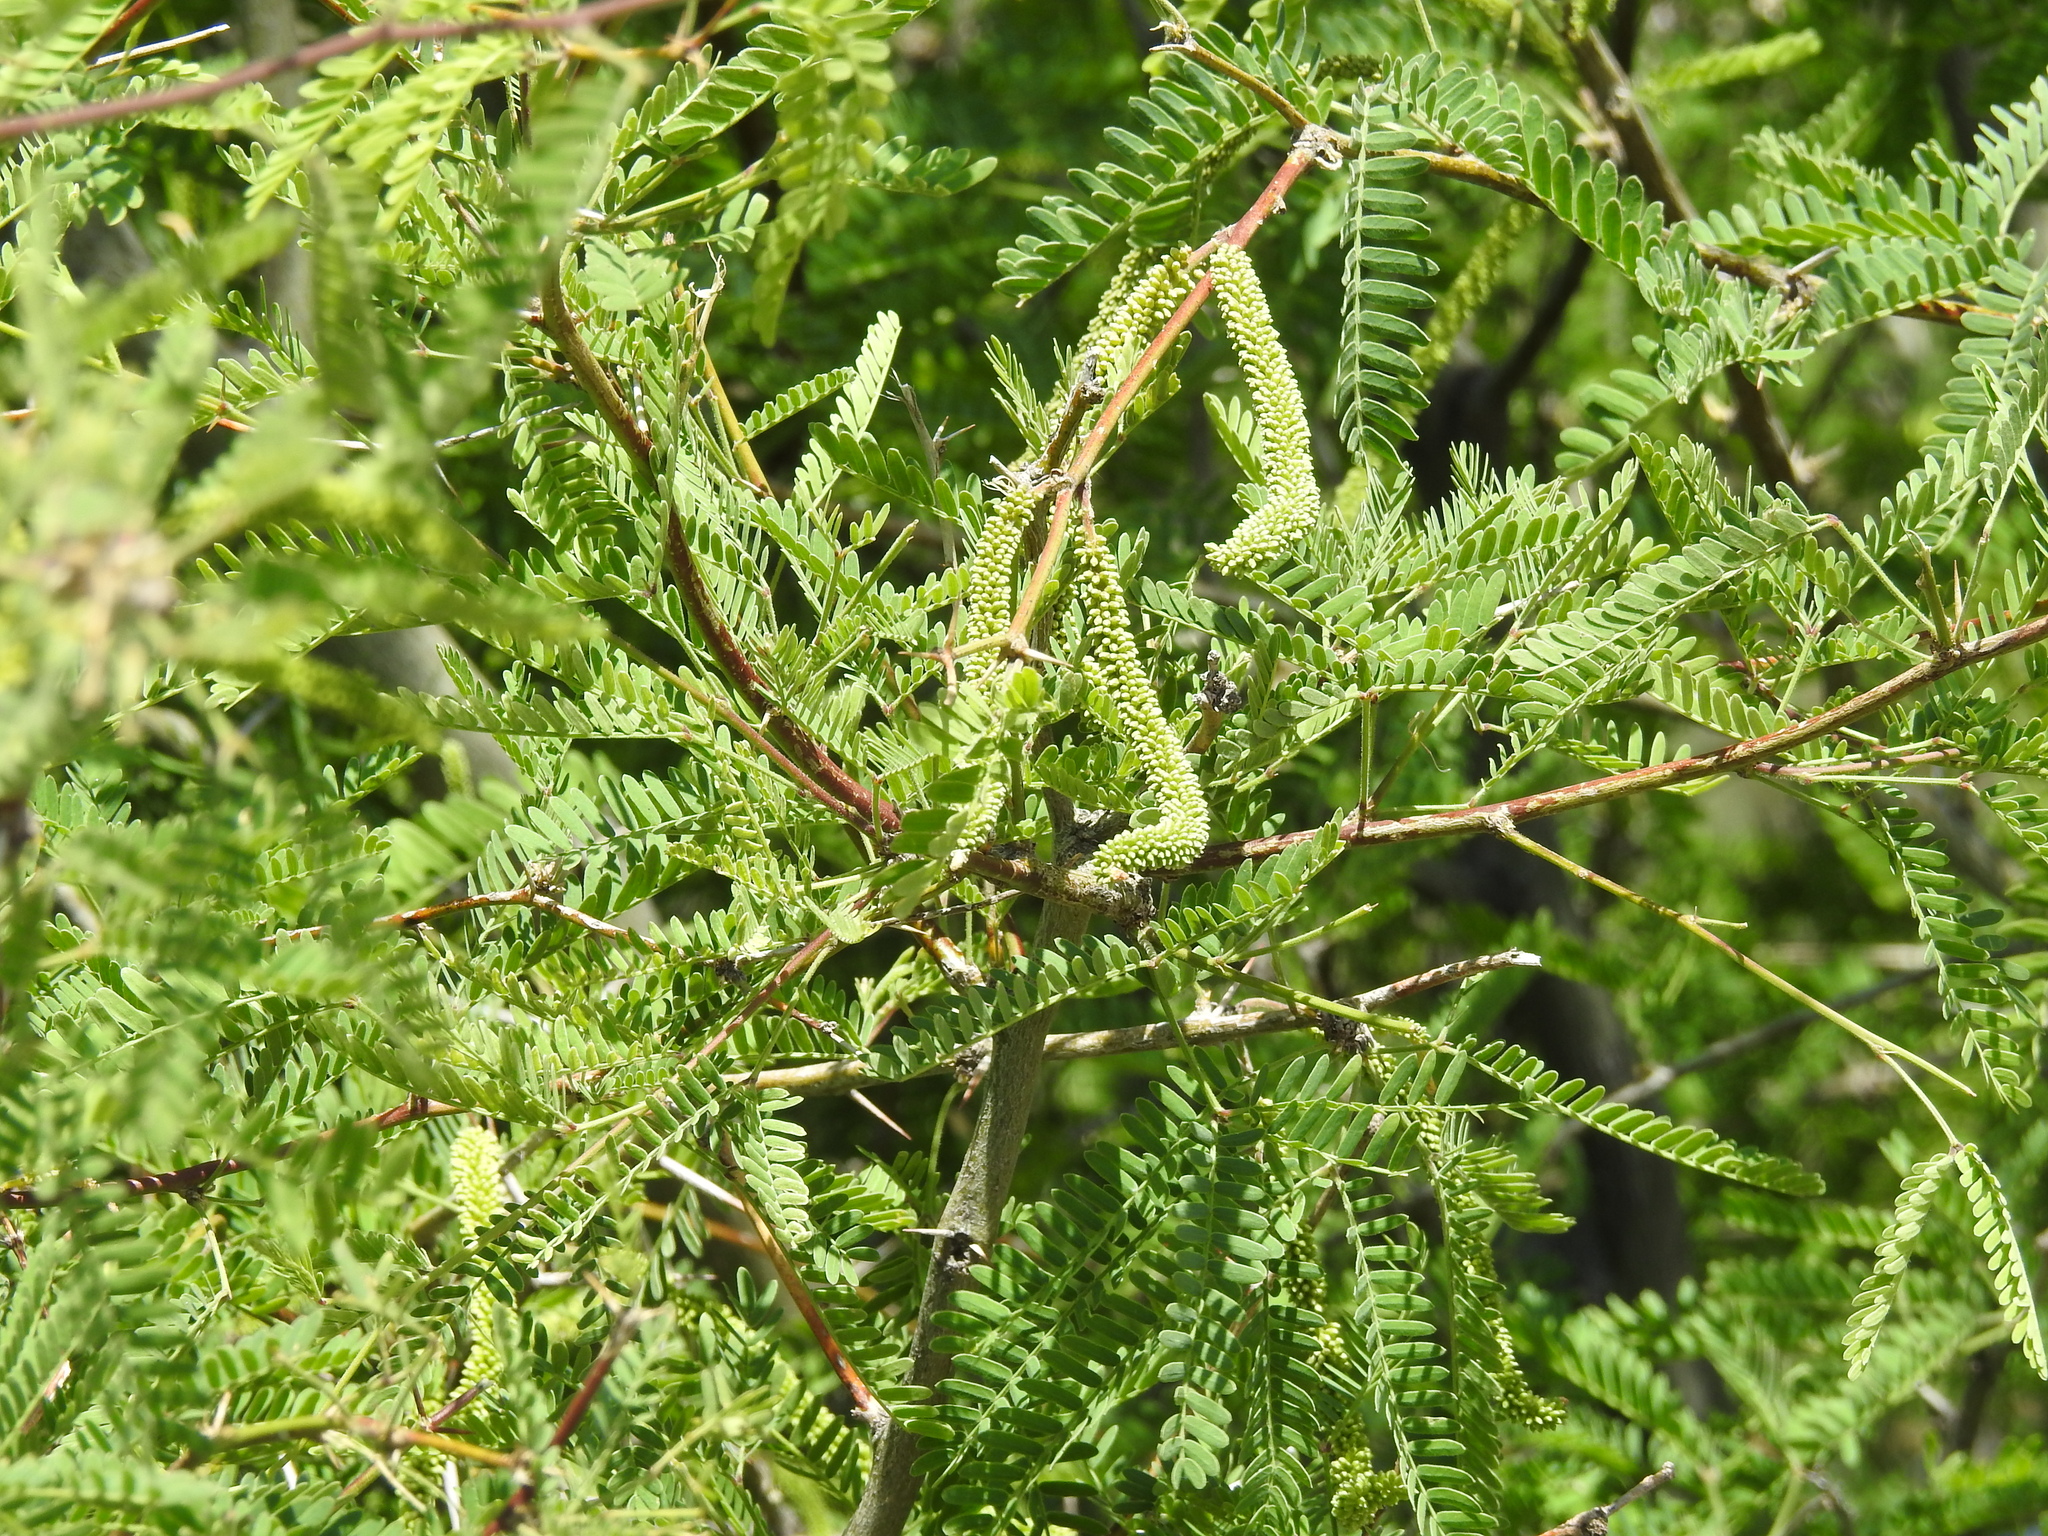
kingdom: Plantae
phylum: Tracheophyta
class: Magnoliopsida
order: Fabales
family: Fabaceae
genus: Prosopis
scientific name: Prosopis velutina
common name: Velvet mesquite
